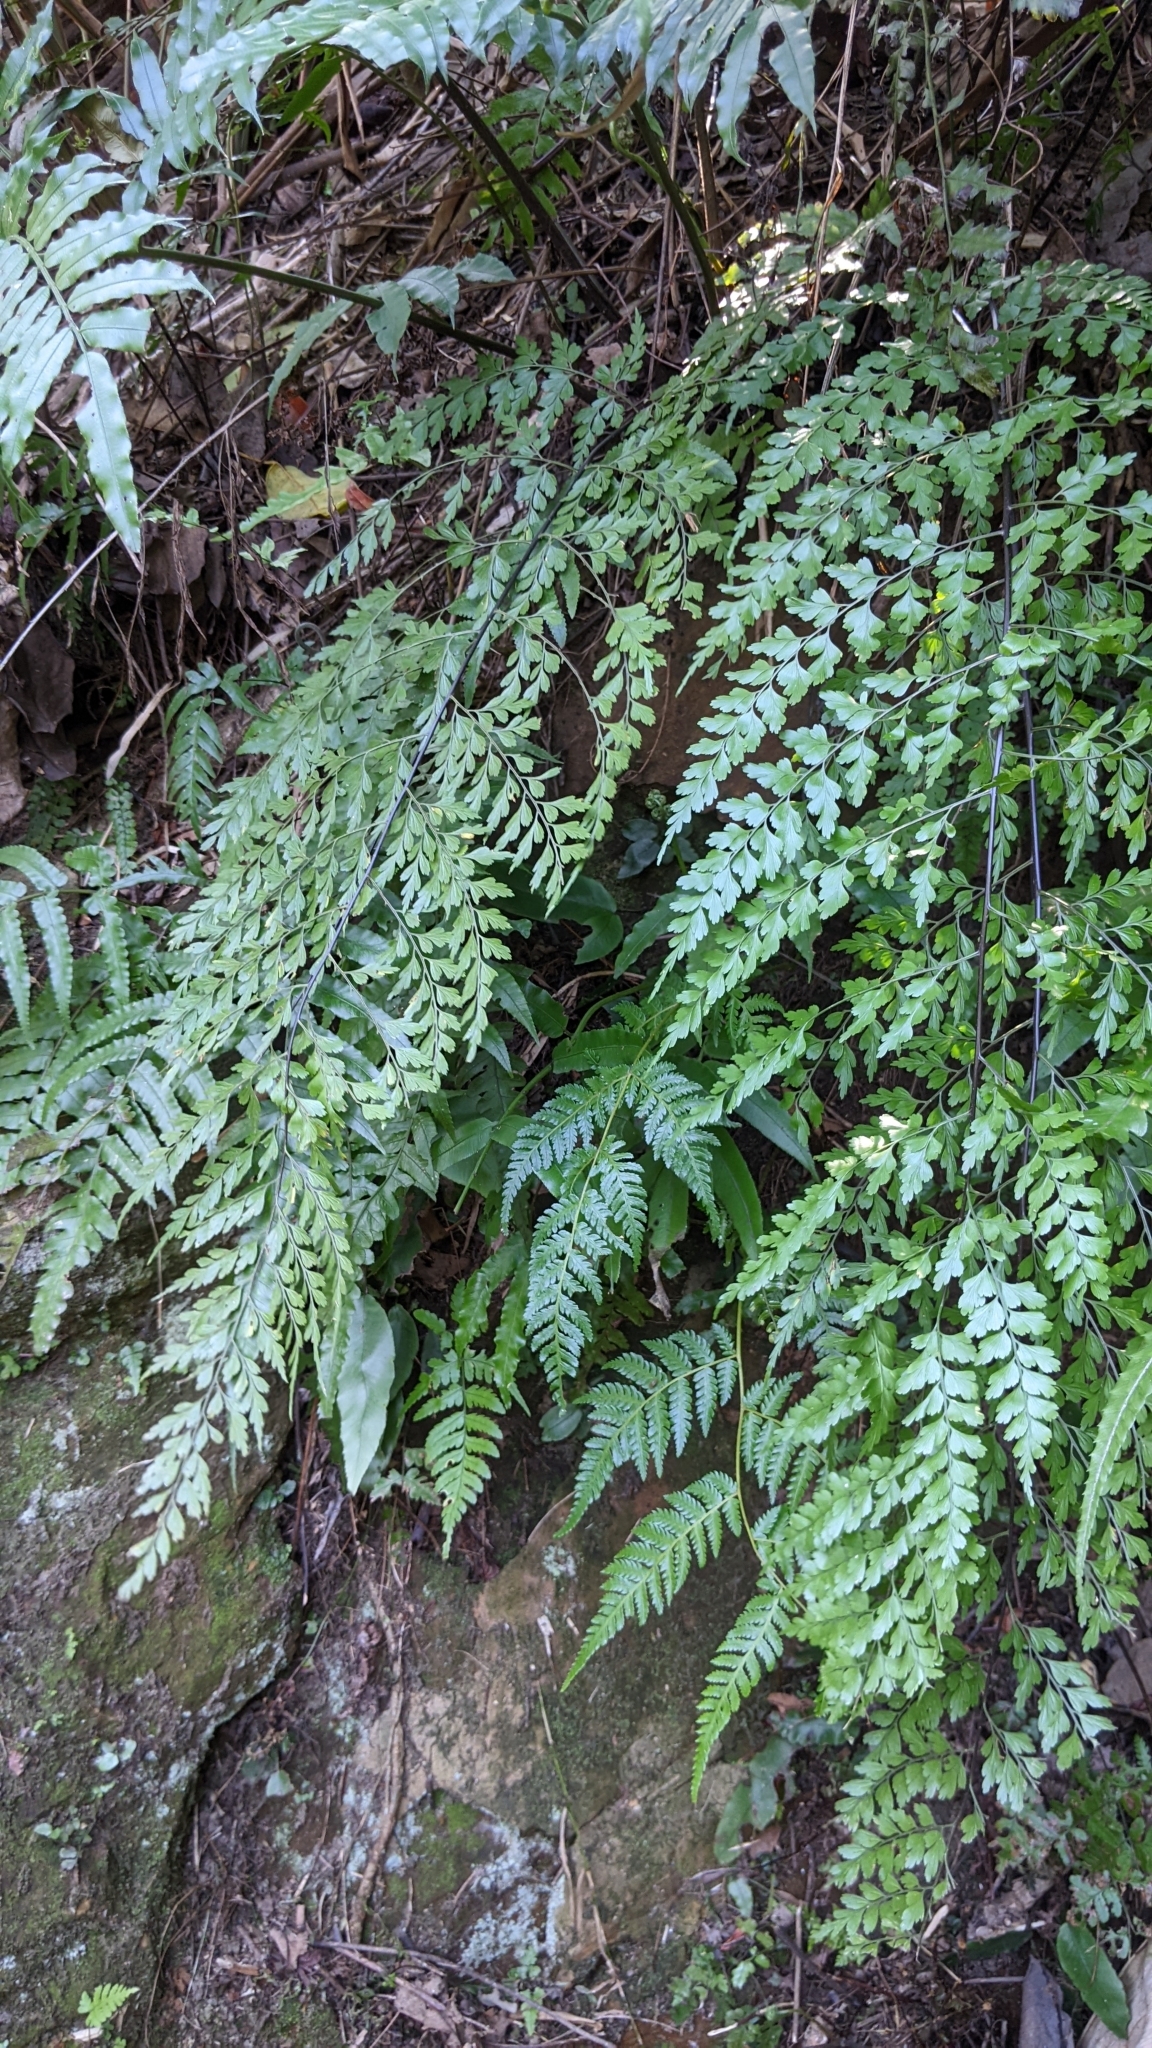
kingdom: Plantae
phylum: Tracheophyta
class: Polypodiopsida
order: Polypodiales
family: Aspleniaceae
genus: Asplenium
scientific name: Asplenium pseudolaserpitiifolium
